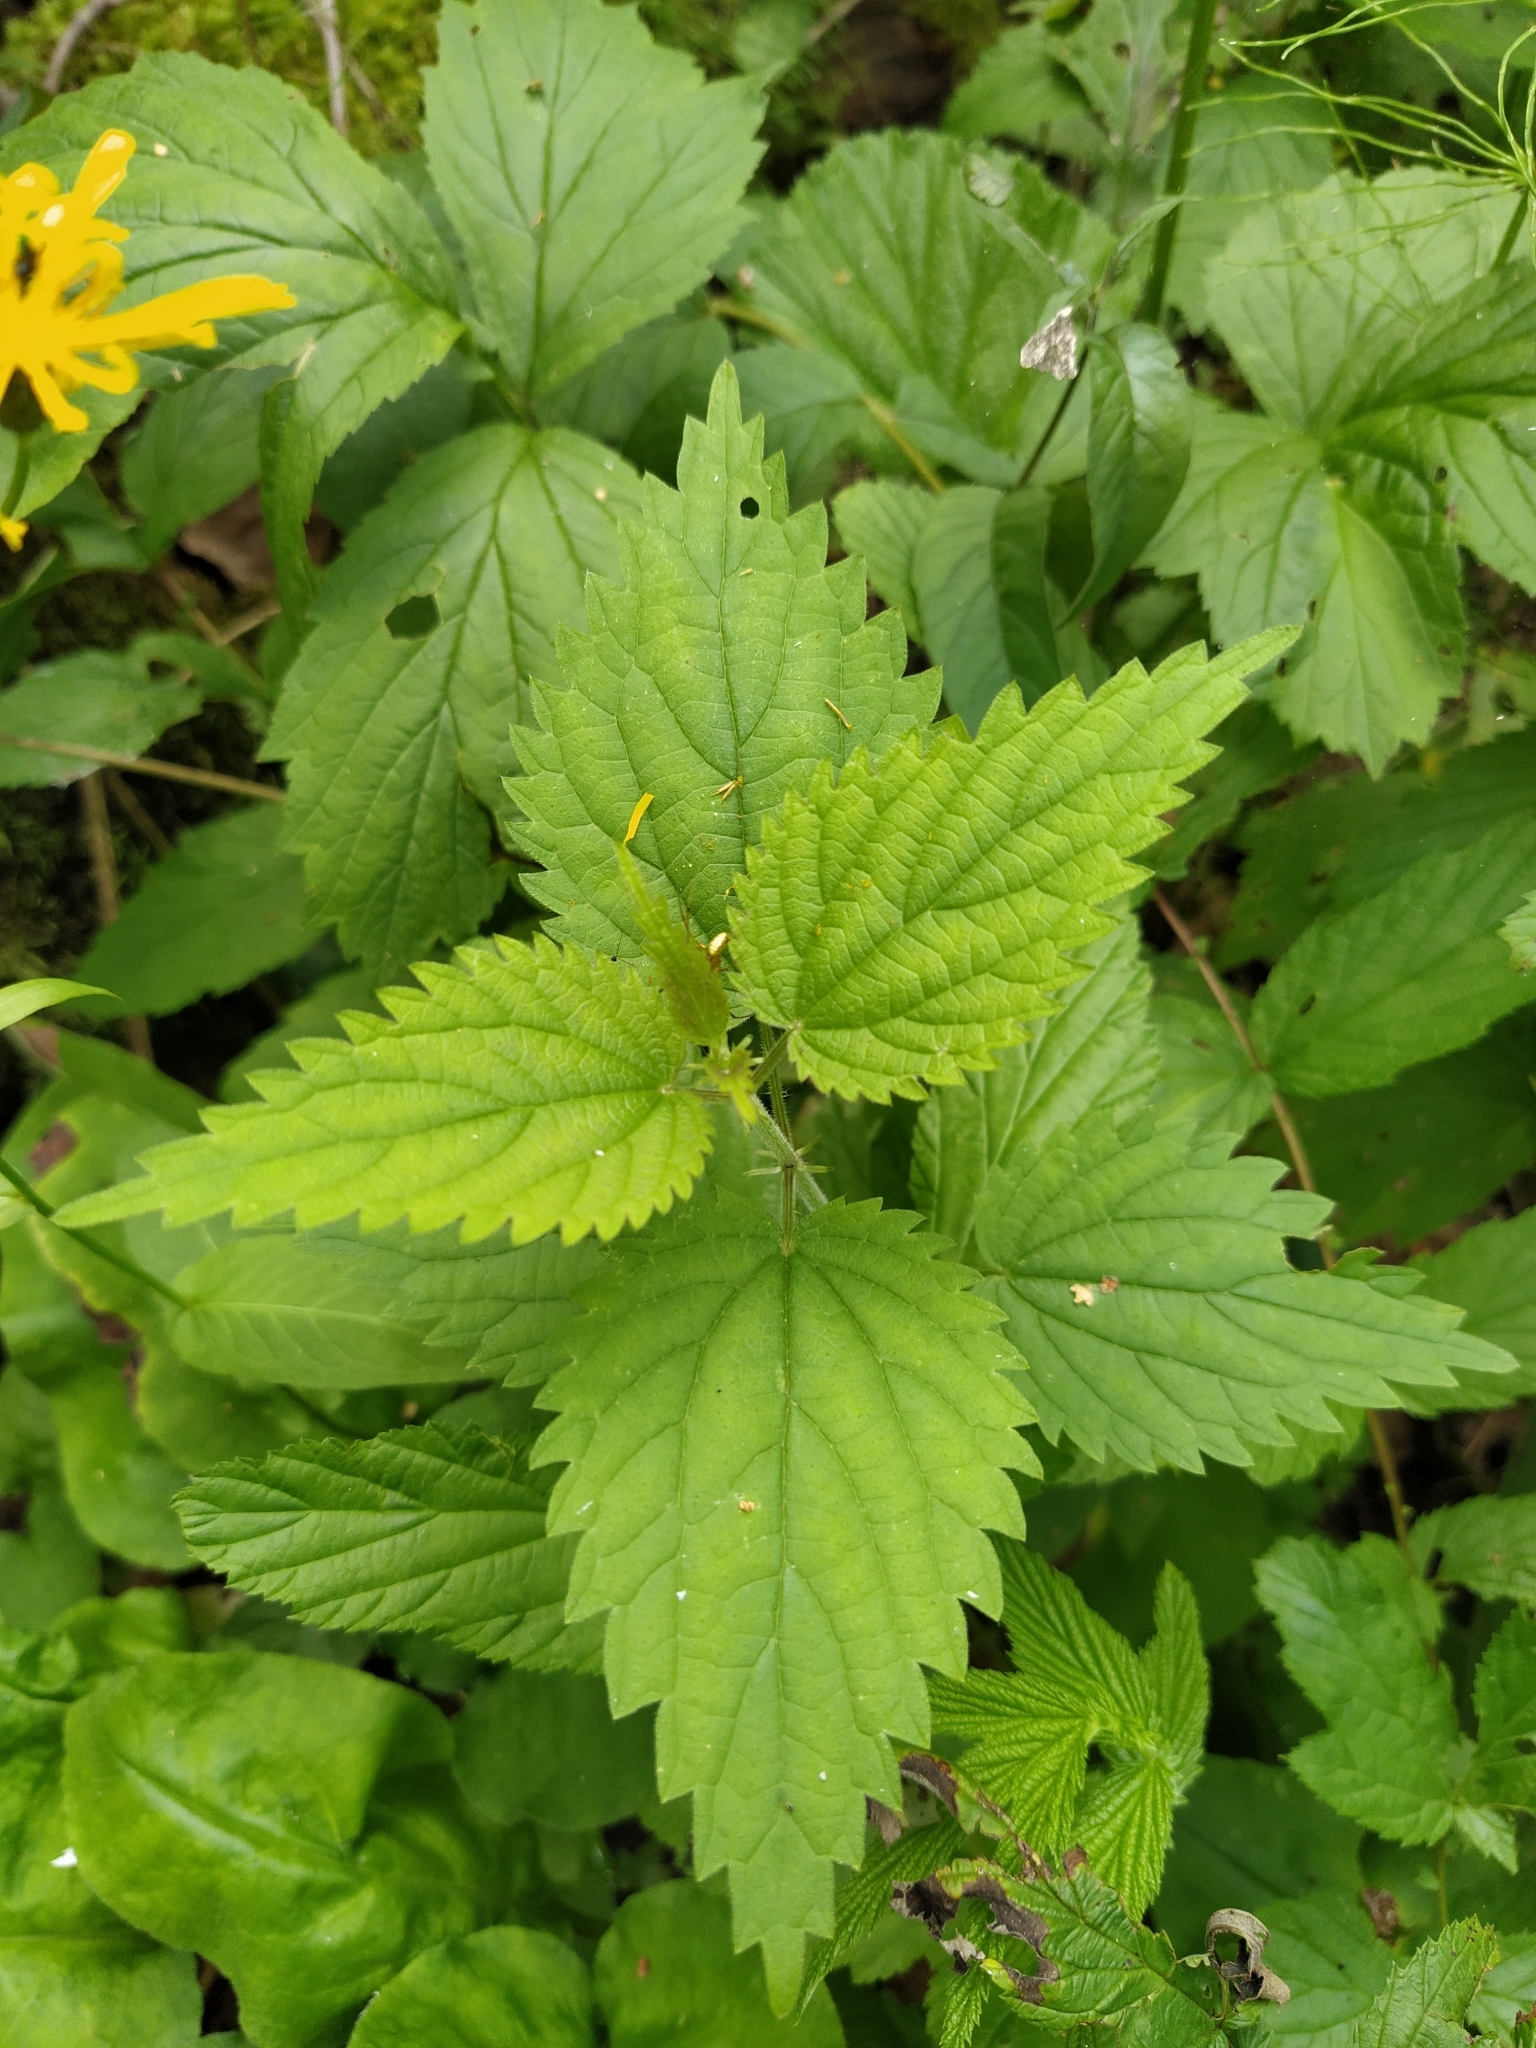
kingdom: Plantae
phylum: Tracheophyta
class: Magnoliopsida
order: Rosales
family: Urticaceae
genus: Urtica
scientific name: Urtica dioica
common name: Common nettle
